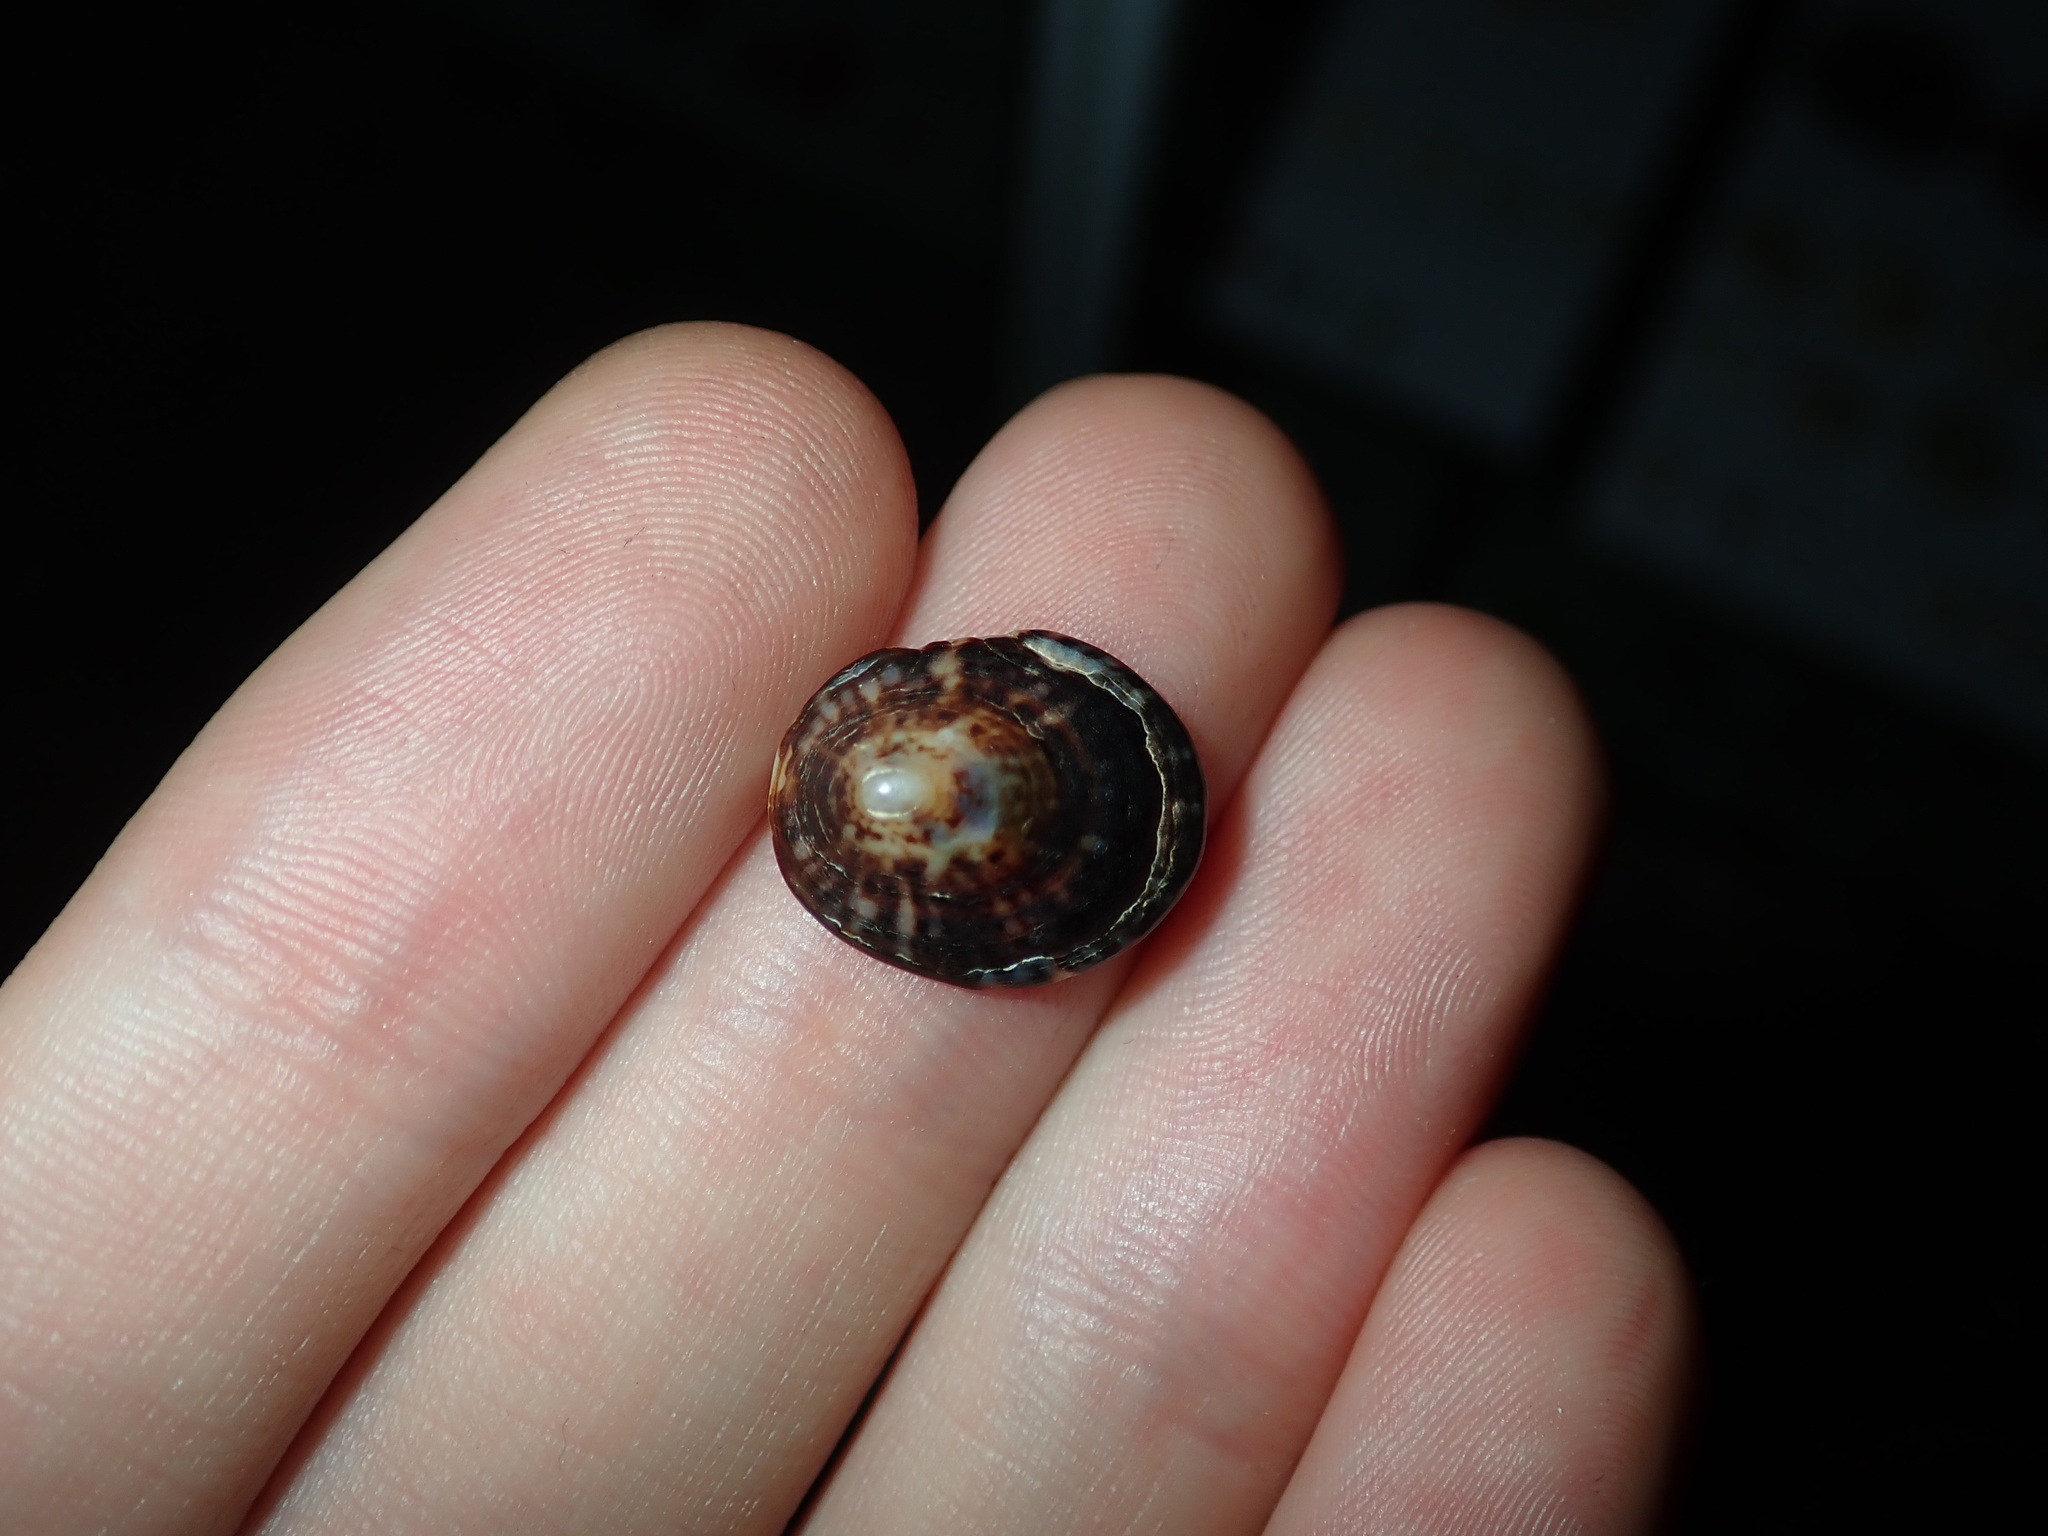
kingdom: Animalia
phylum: Mollusca
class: Gastropoda
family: Lottiidae
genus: Notoacmea
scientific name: Notoacmea petterdi
